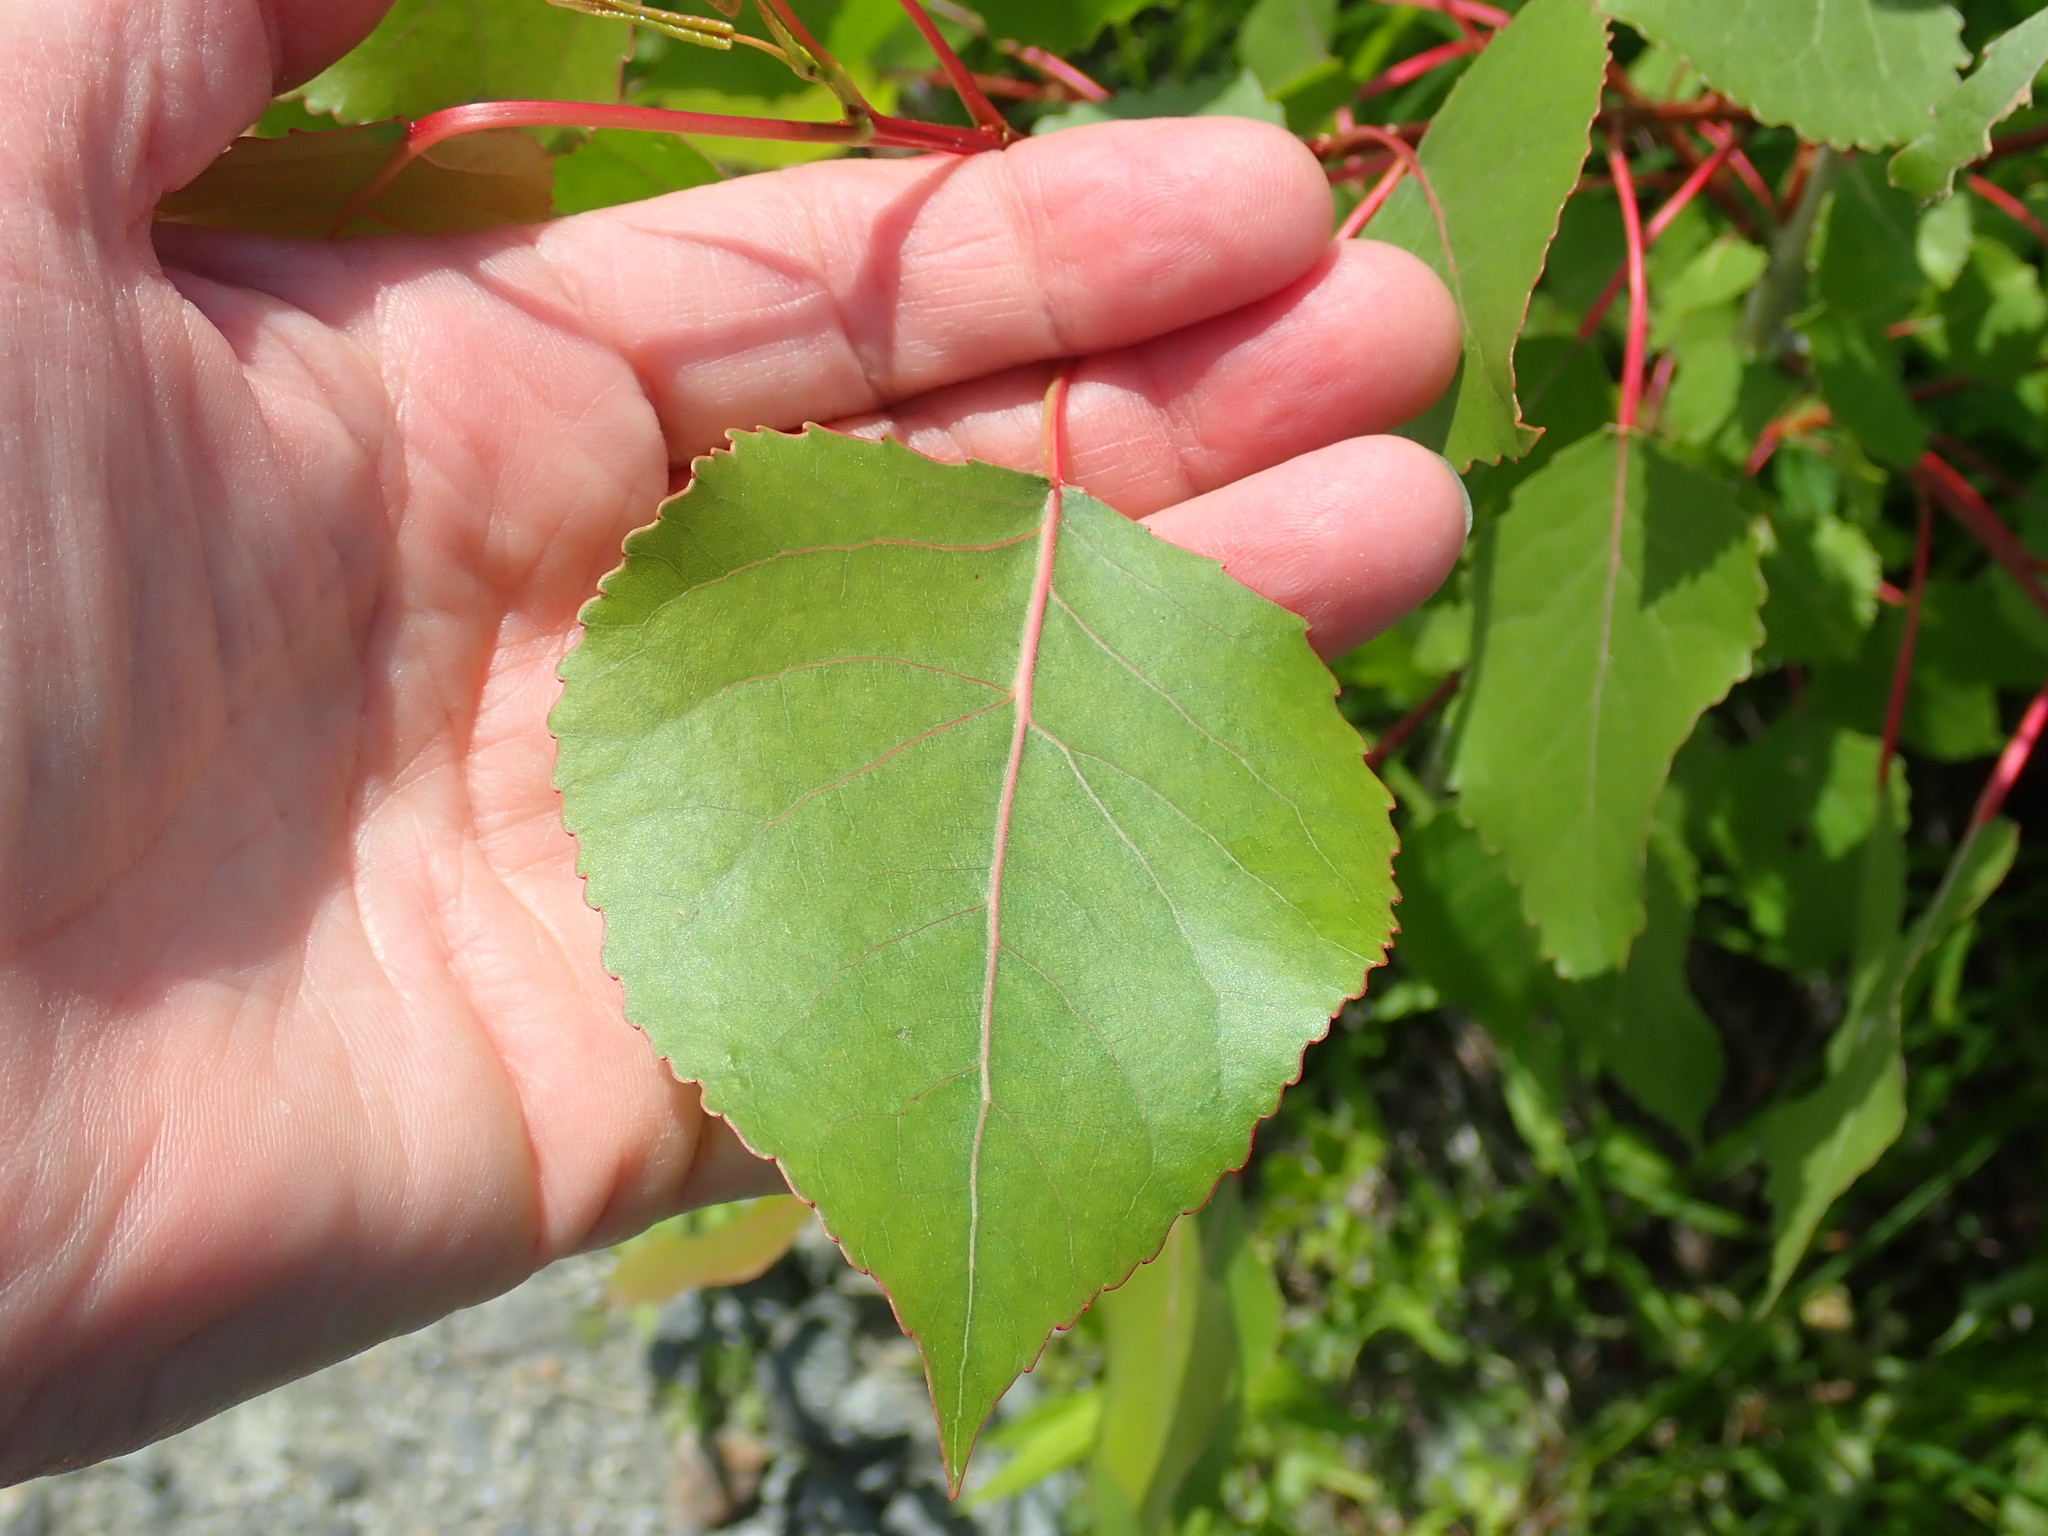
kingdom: Plantae
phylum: Tracheophyta
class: Magnoliopsida
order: Malpighiales
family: Salicaceae
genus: Populus
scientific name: Populus deltoides
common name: Eastern cottonwood
